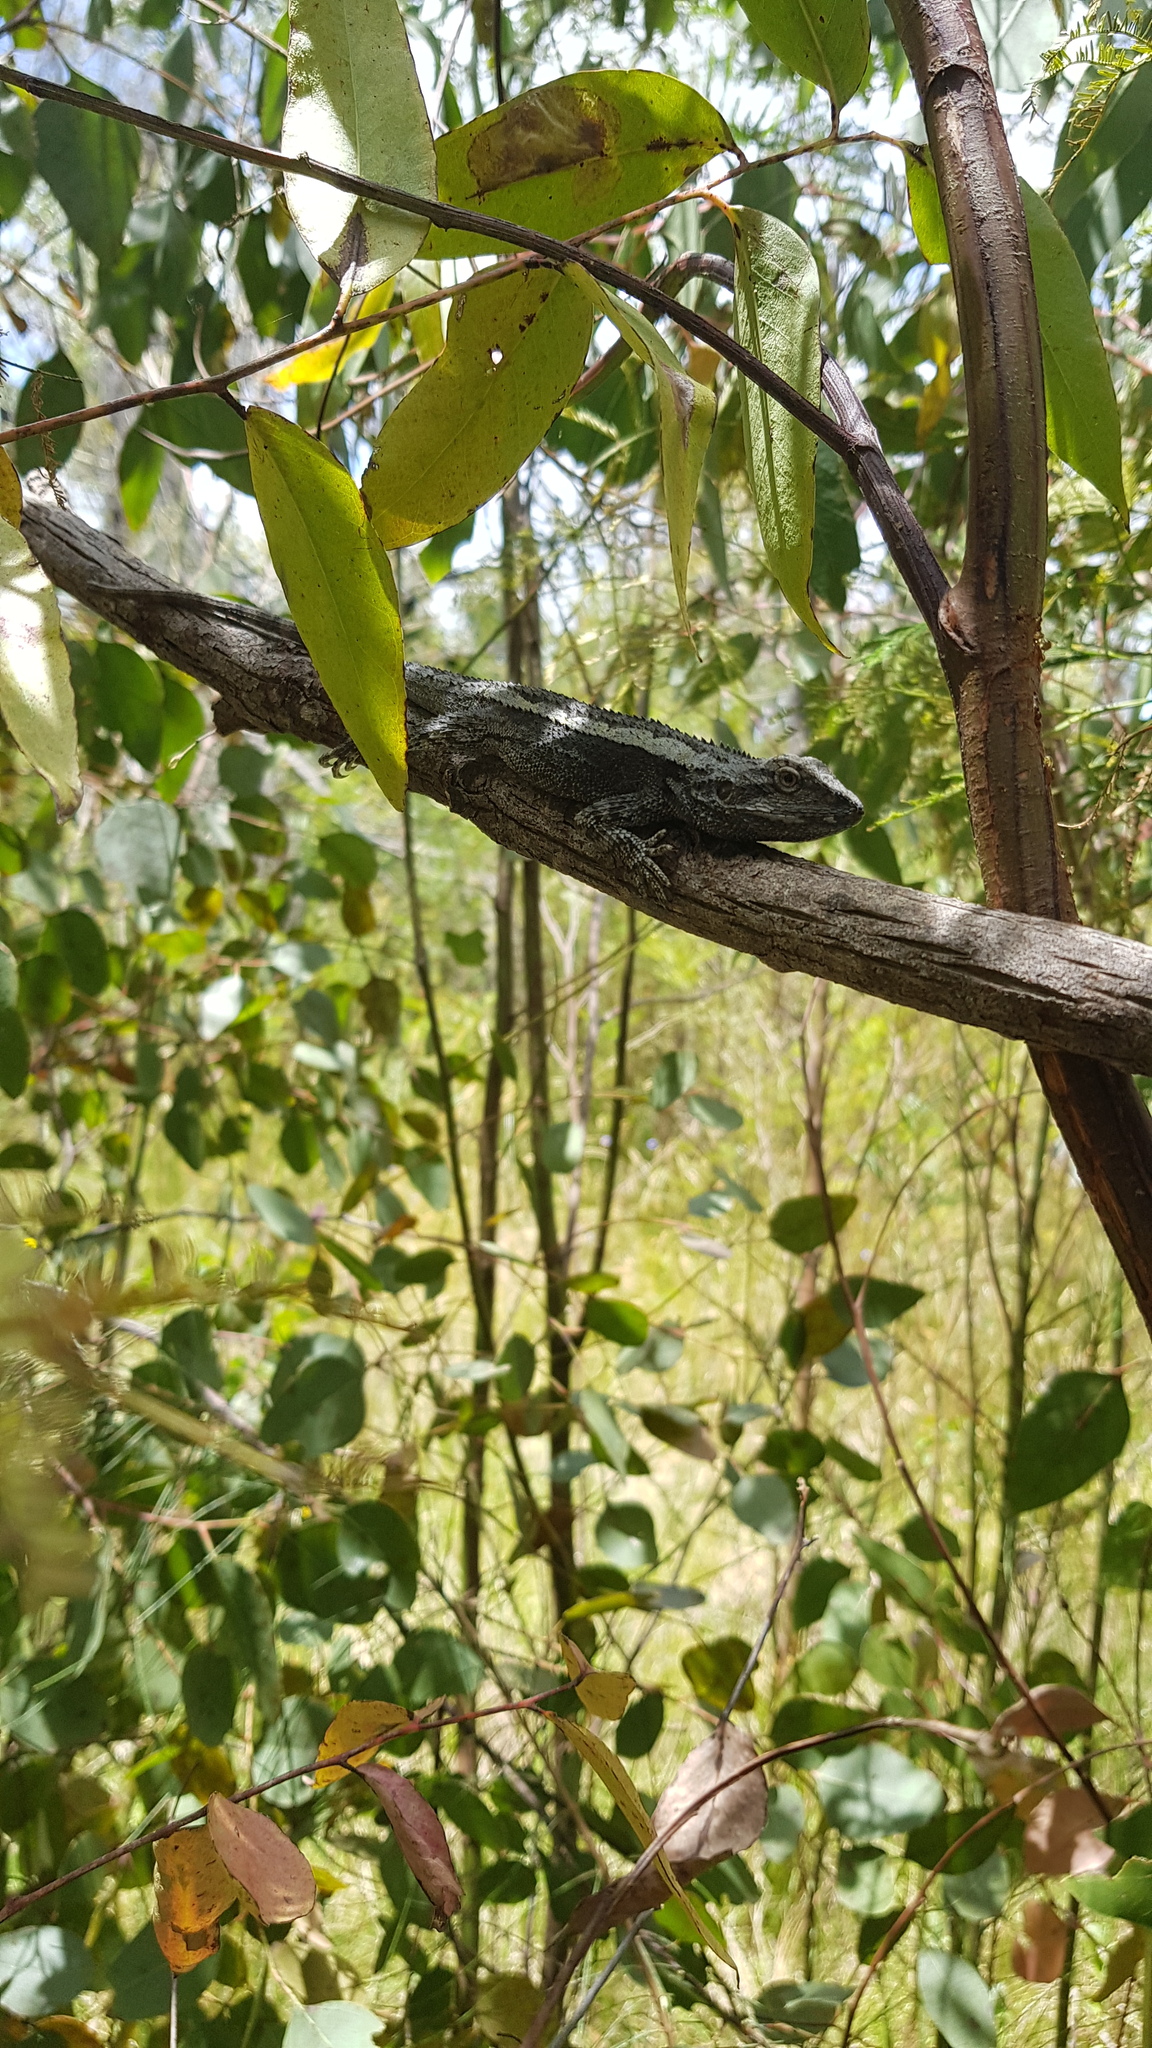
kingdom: Animalia
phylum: Chordata
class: Squamata
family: Agamidae
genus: Amphibolurus
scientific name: Amphibolurus muricatus
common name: Jacky lizard
